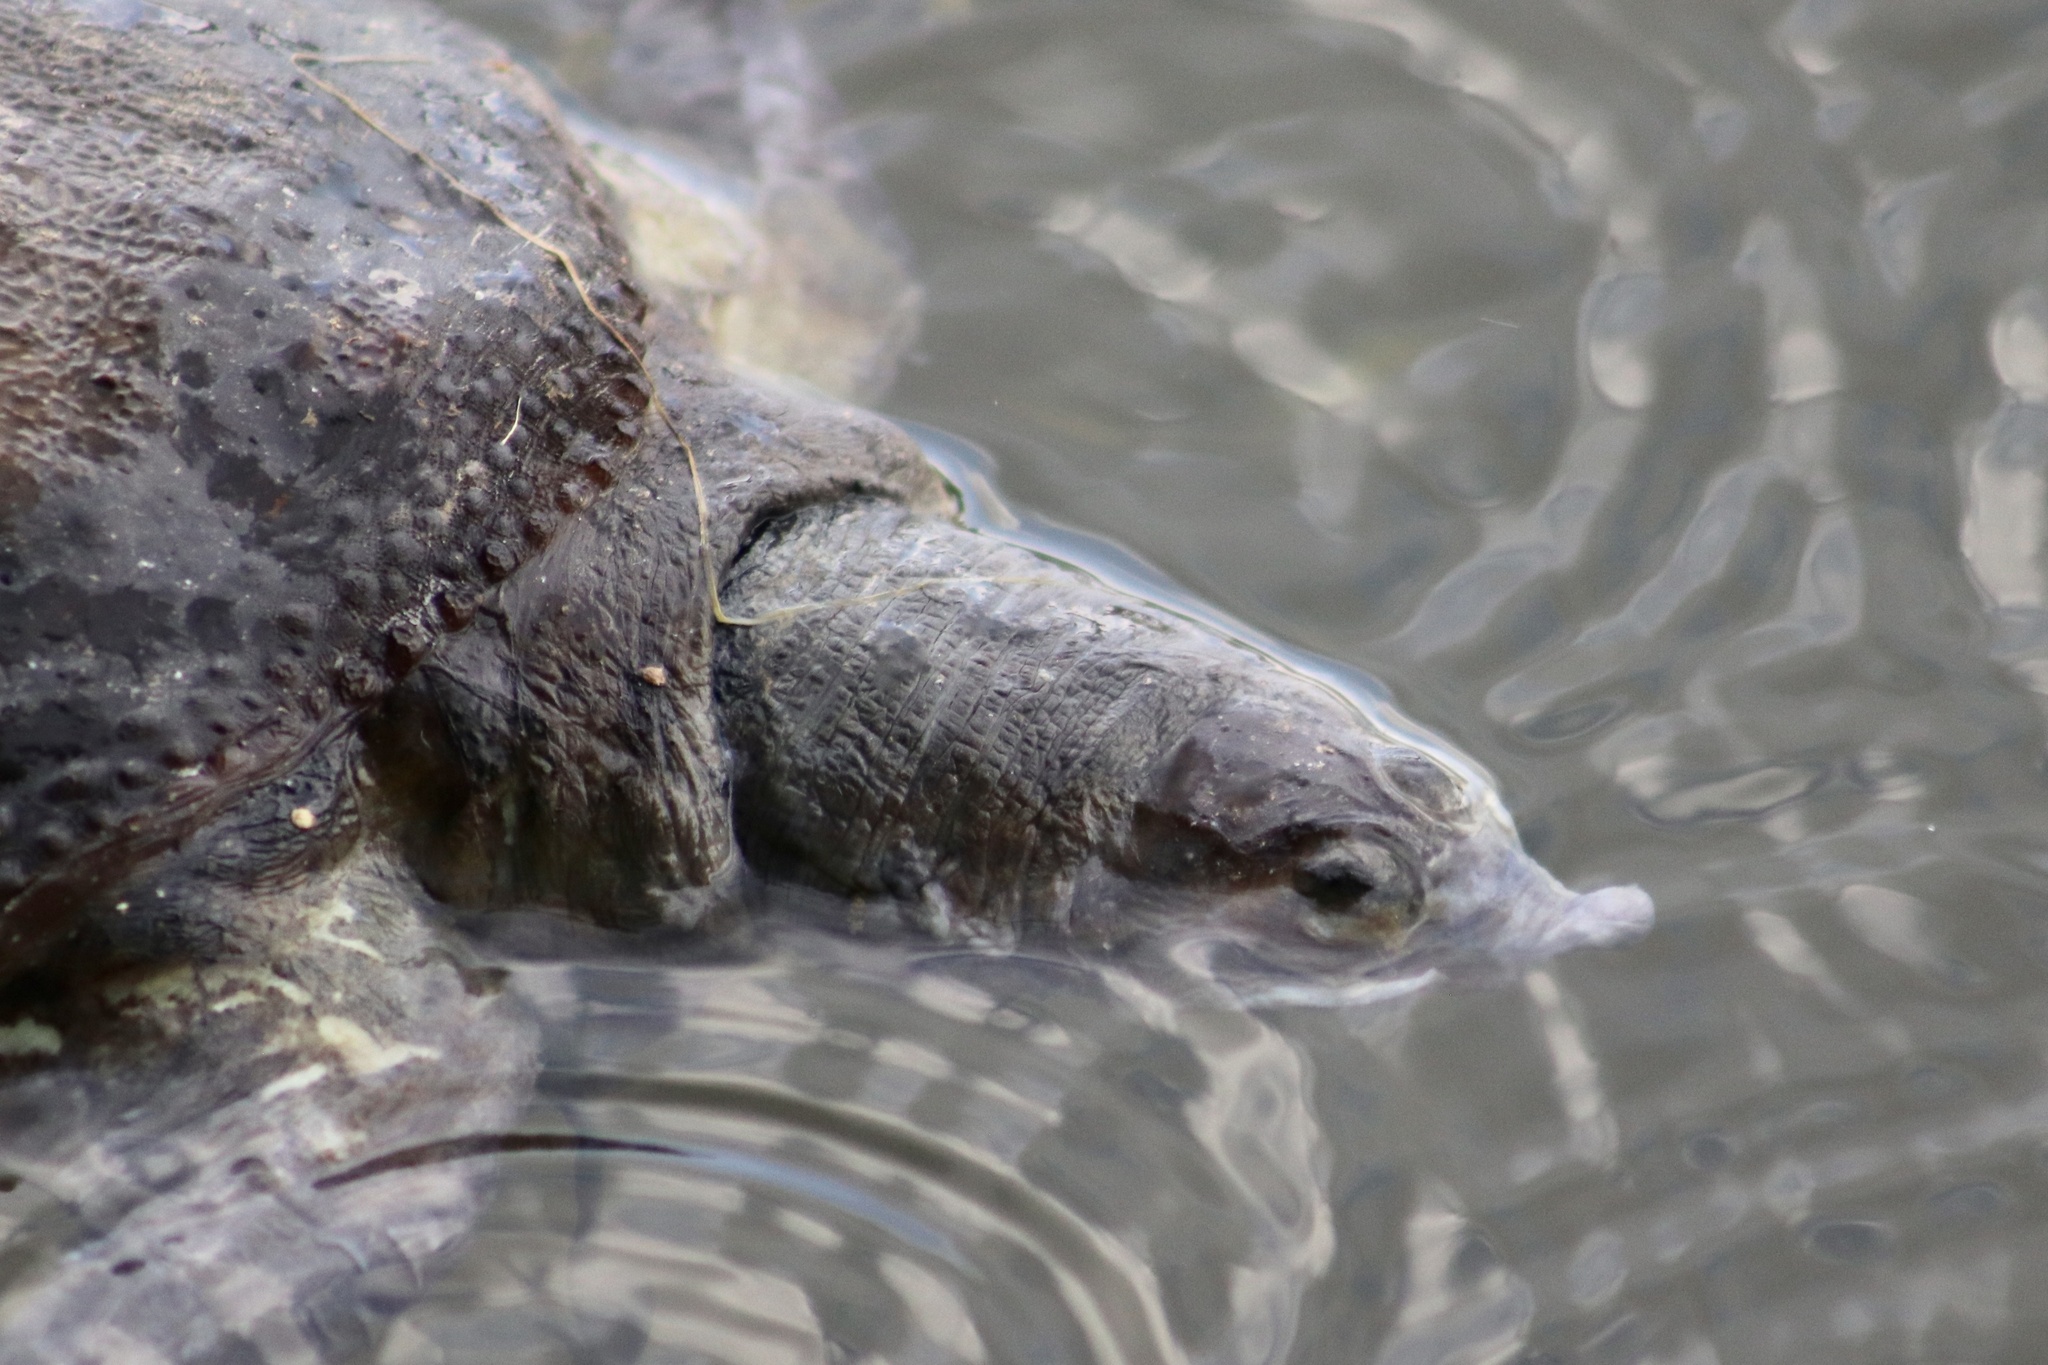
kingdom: Animalia
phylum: Chordata
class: Testudines
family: Trionychidae
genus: Apalone
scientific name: Apalone ferox
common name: Florida softshell turtle
